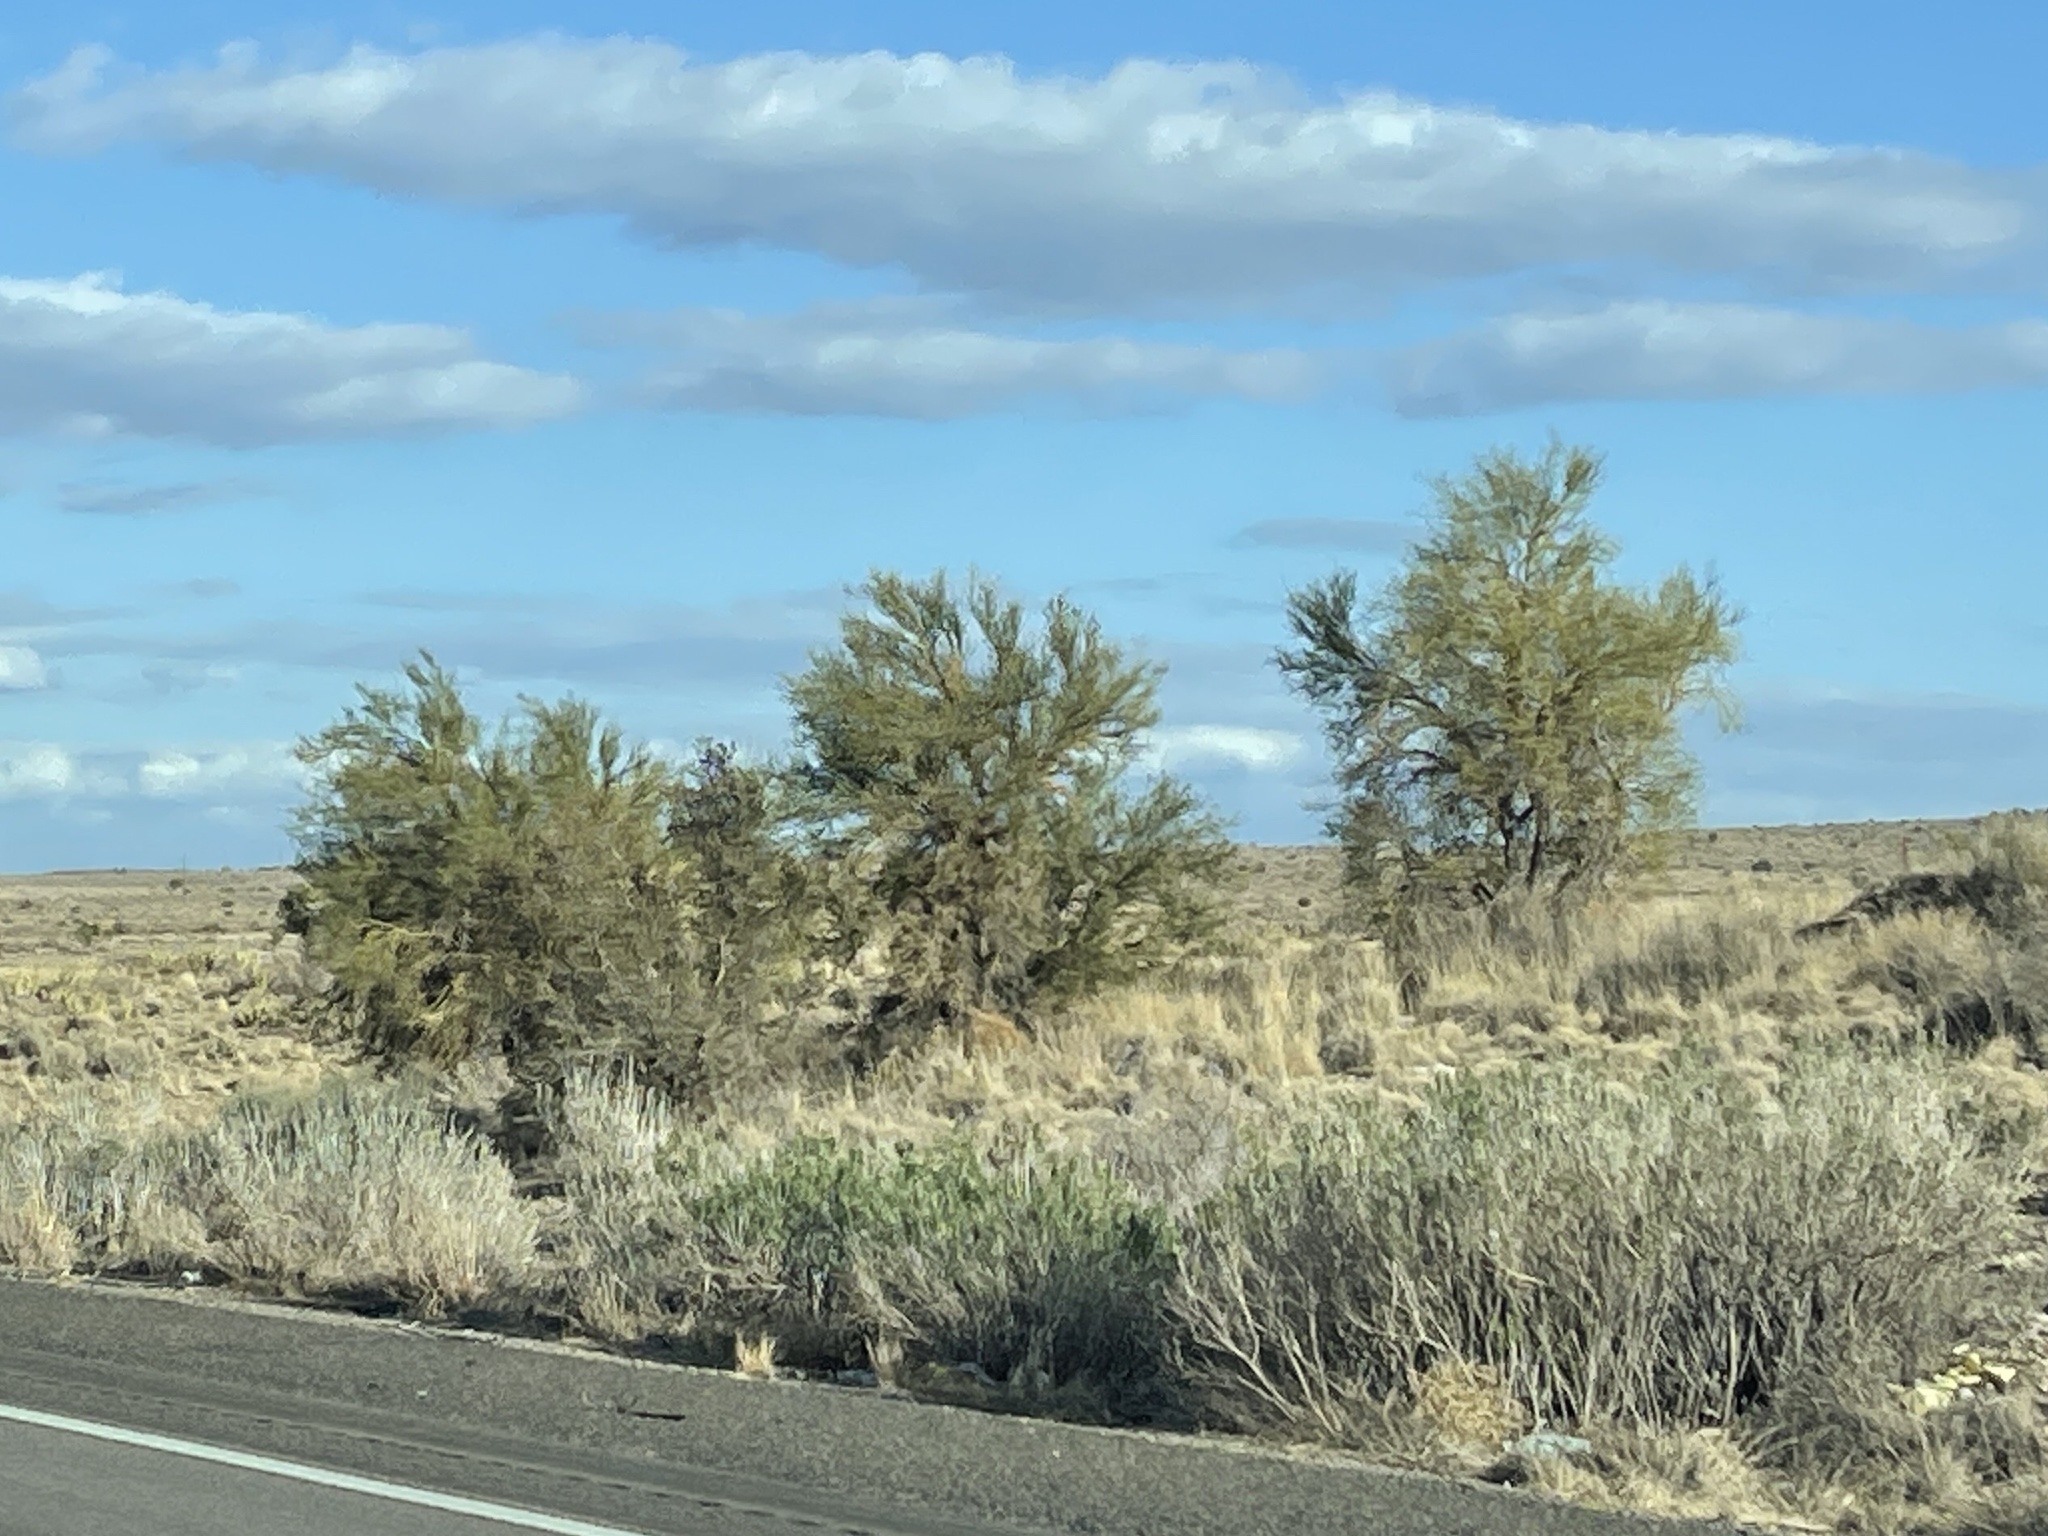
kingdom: Plantae
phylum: Tracheophyta
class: Magnoliopsida
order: Celastrales
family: Celastraceae
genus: Canotia
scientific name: Canotia holacantha
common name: Crucifixion thorns
